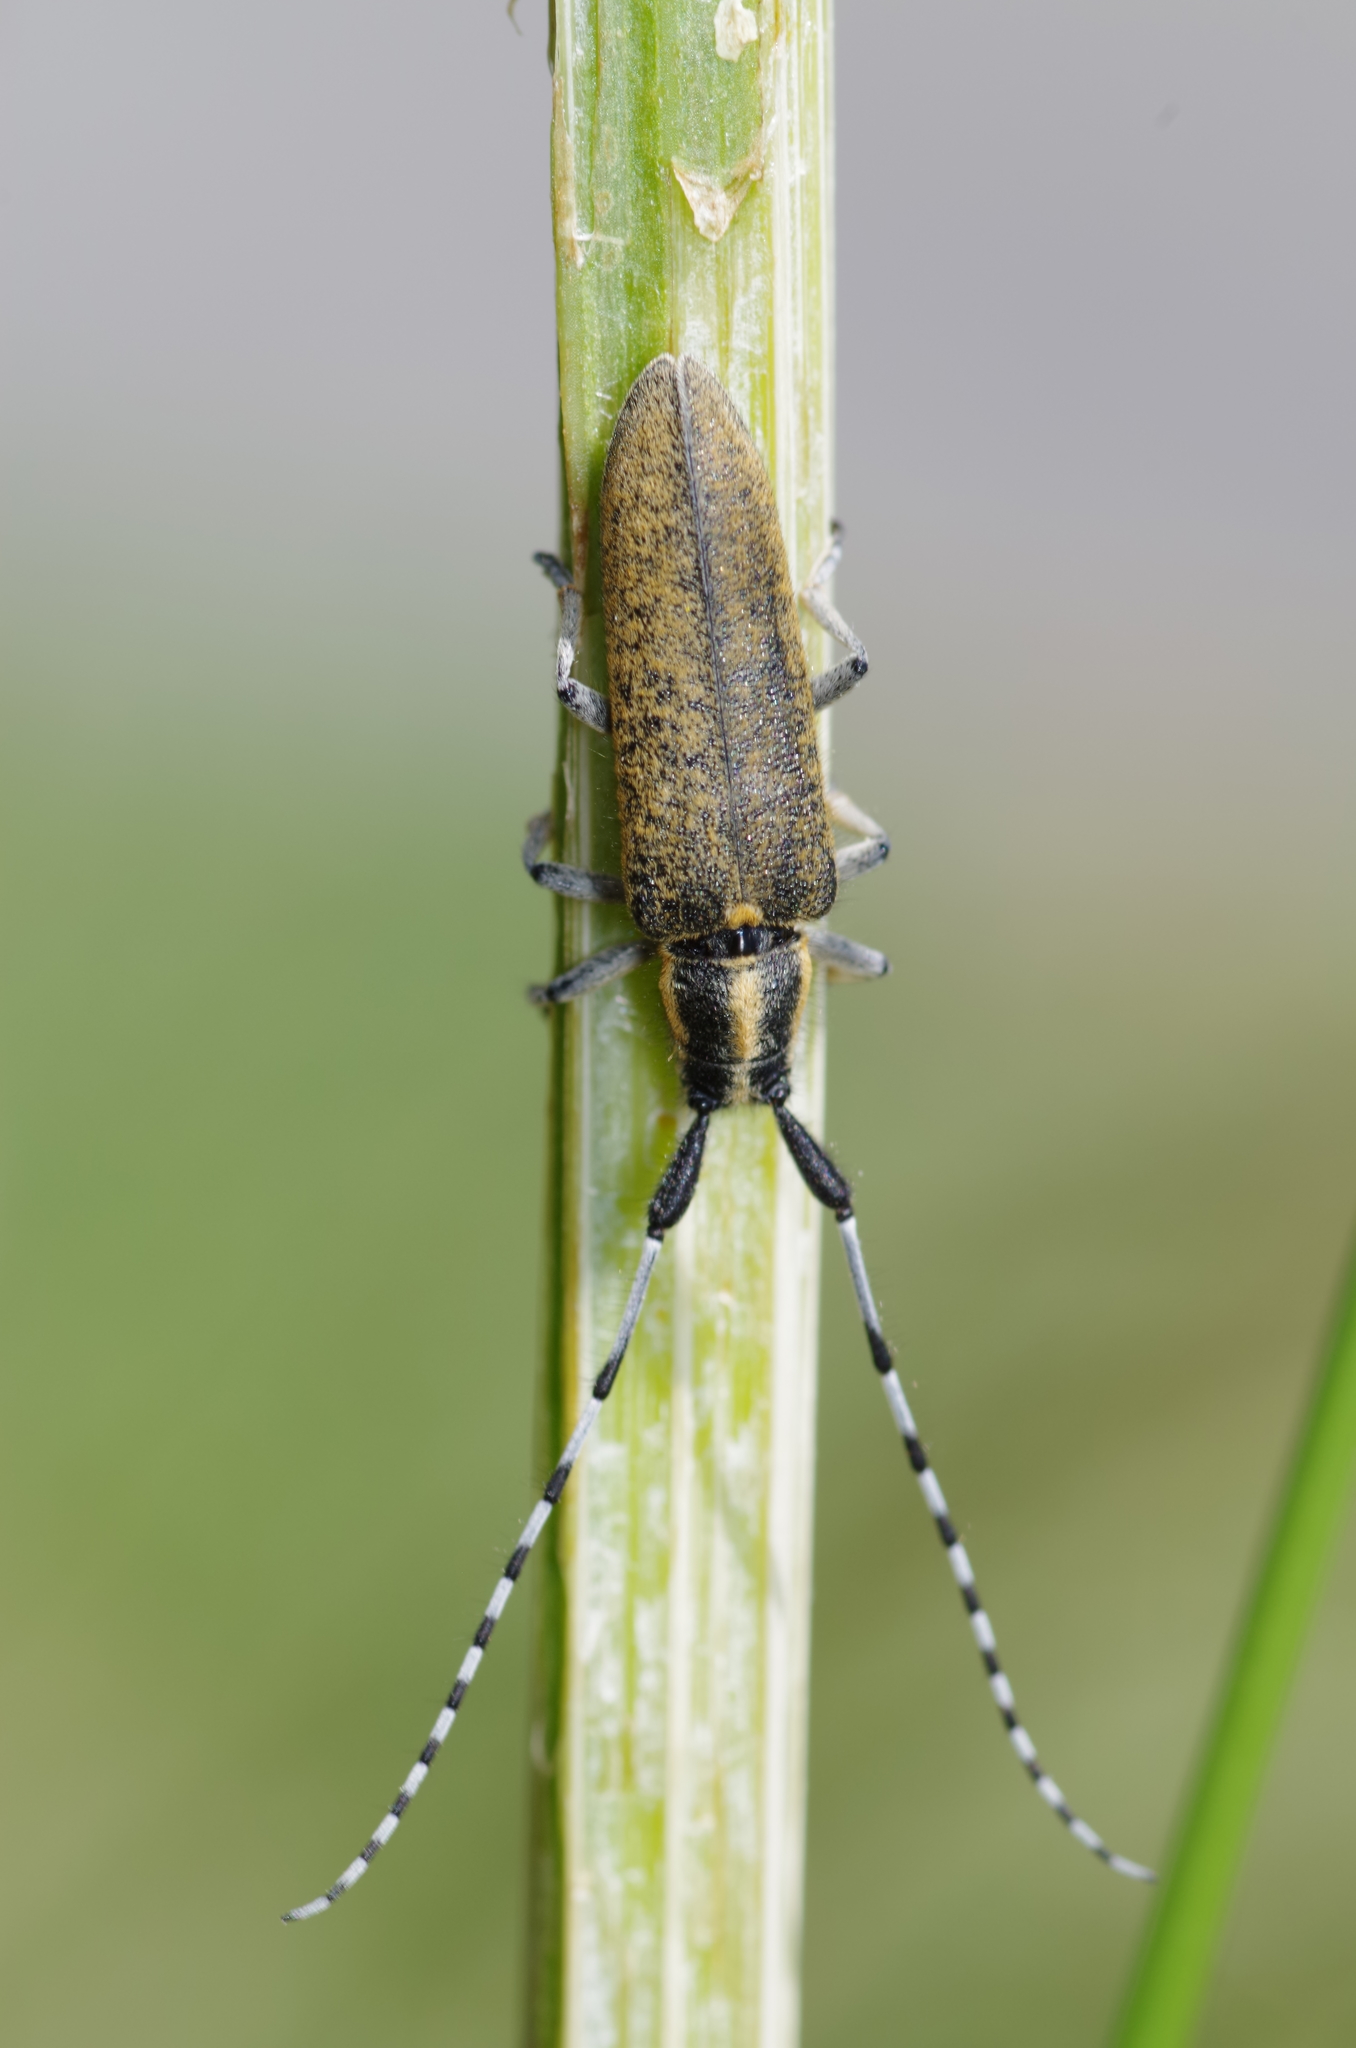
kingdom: Animalia
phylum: Arthropoda
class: Insecta
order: Coleoptera
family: Cerambycidae
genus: Agapanthia
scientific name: Agapanthia villosoviridescens
